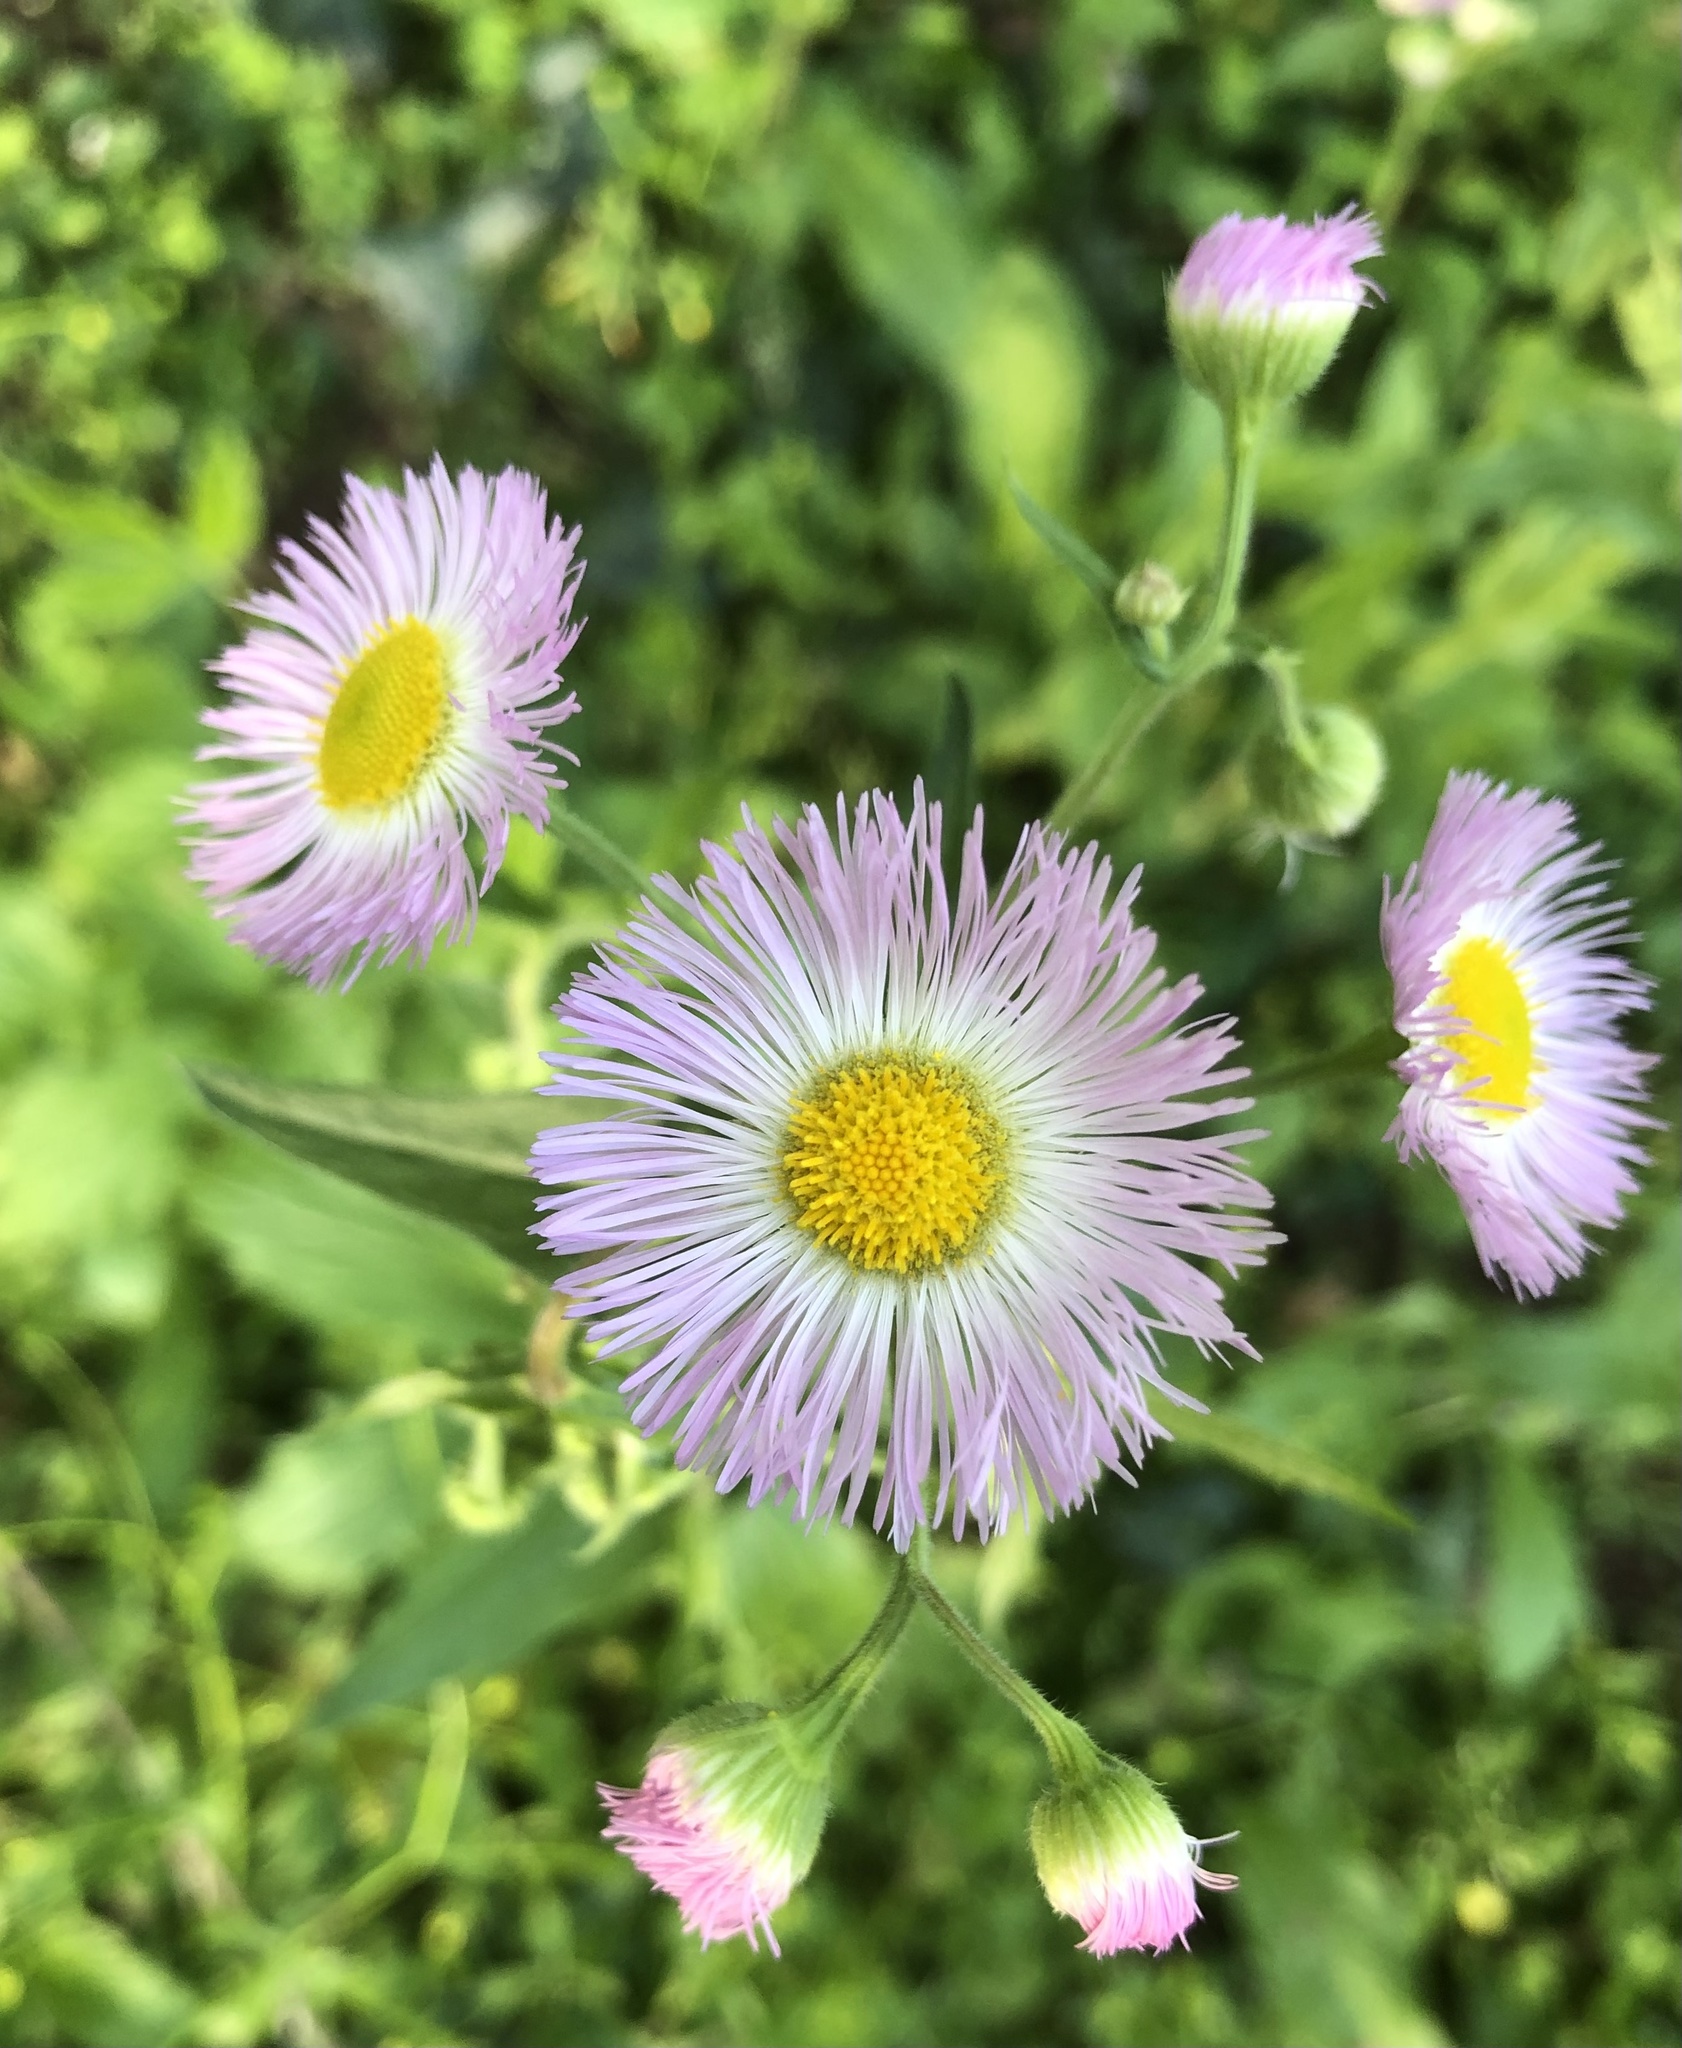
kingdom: Plantae
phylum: Tracheophyta
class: Magnoliopsida
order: Asterales
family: Asteraceae
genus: Erigeron
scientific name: Erigeron philadelphicus
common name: Robin's-plantain
